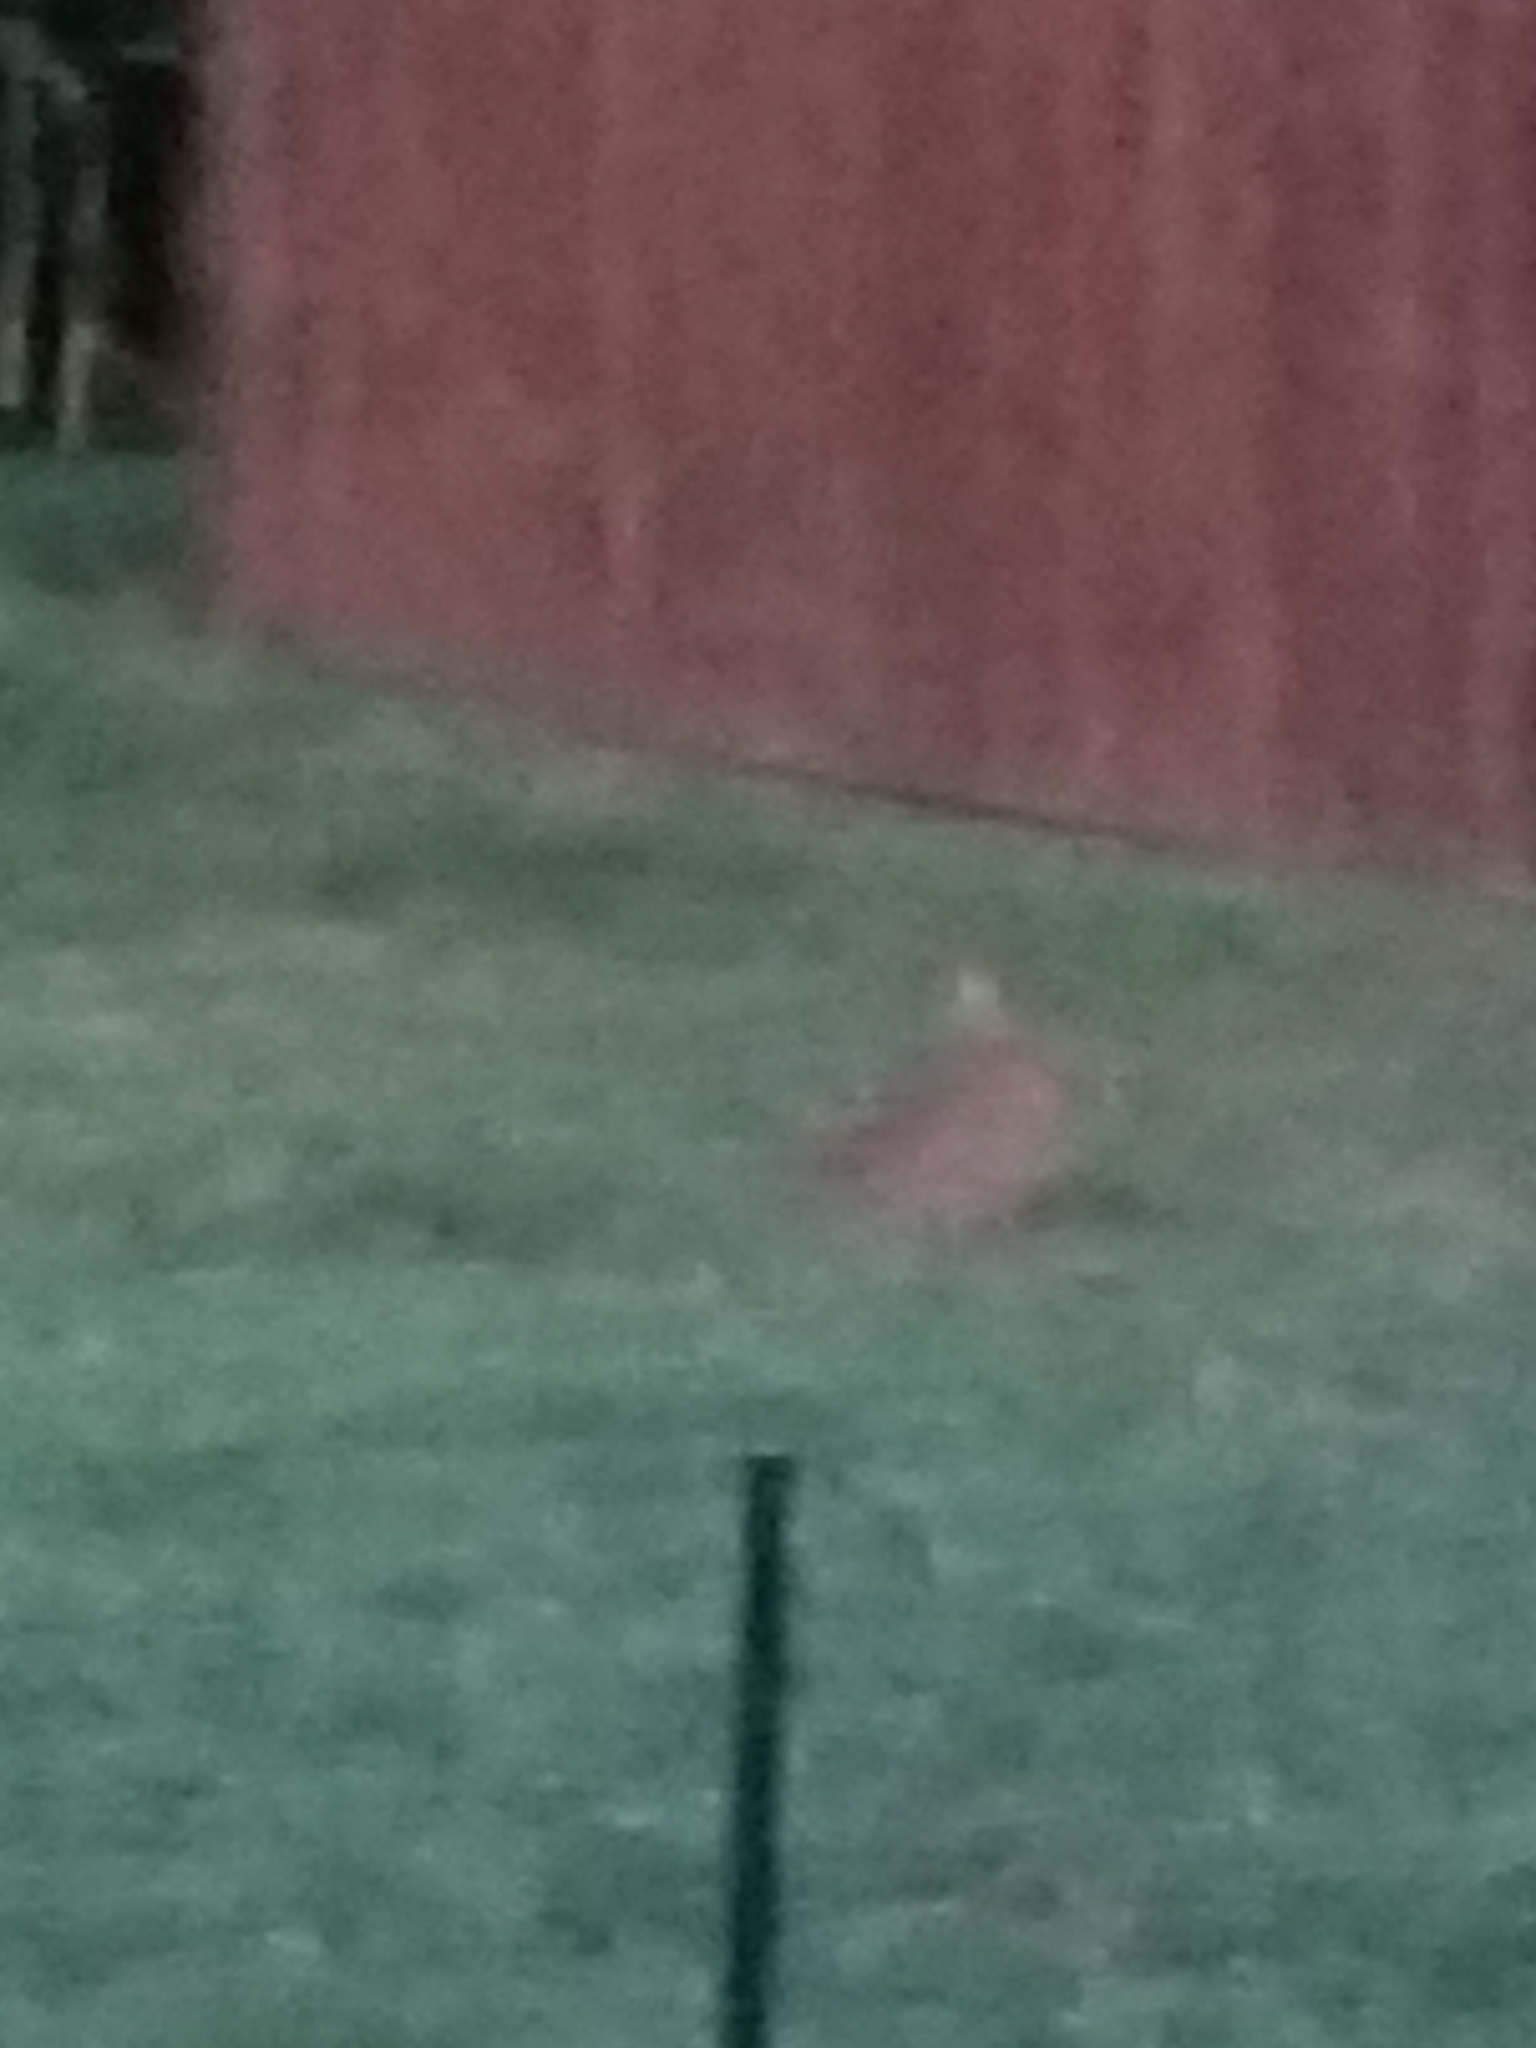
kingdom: Animalia
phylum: Chordata
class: Mammalia
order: Lagomorpha
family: Leporidae
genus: Sylvilagus
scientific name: Sylvilagus floridanus
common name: Eastern cottontail
